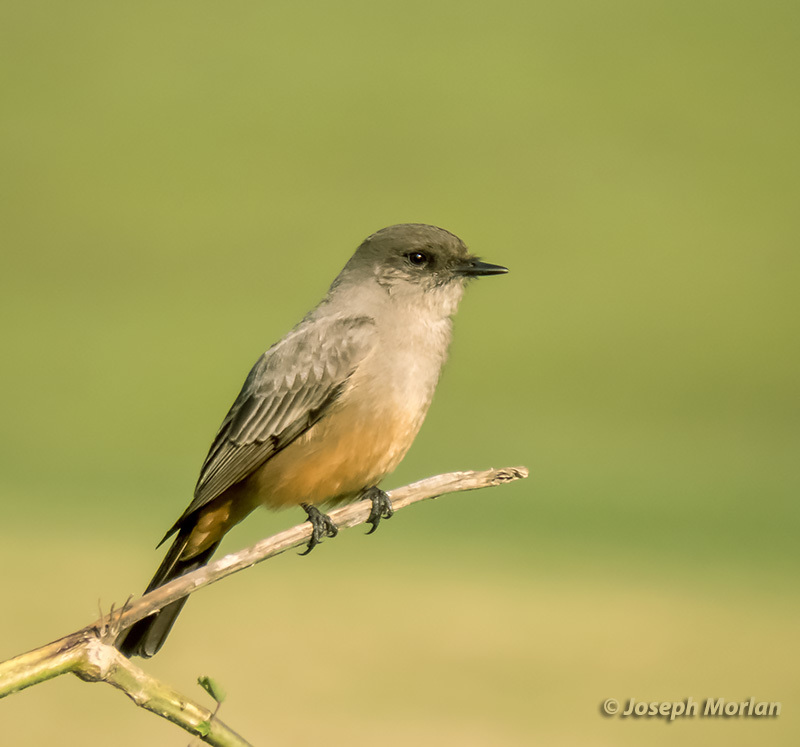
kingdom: Animalia
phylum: Chordata
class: Aves
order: Passeriformes
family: Tyrannidae
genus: Sayornis
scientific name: Sayornis saya
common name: Say's phoebe
